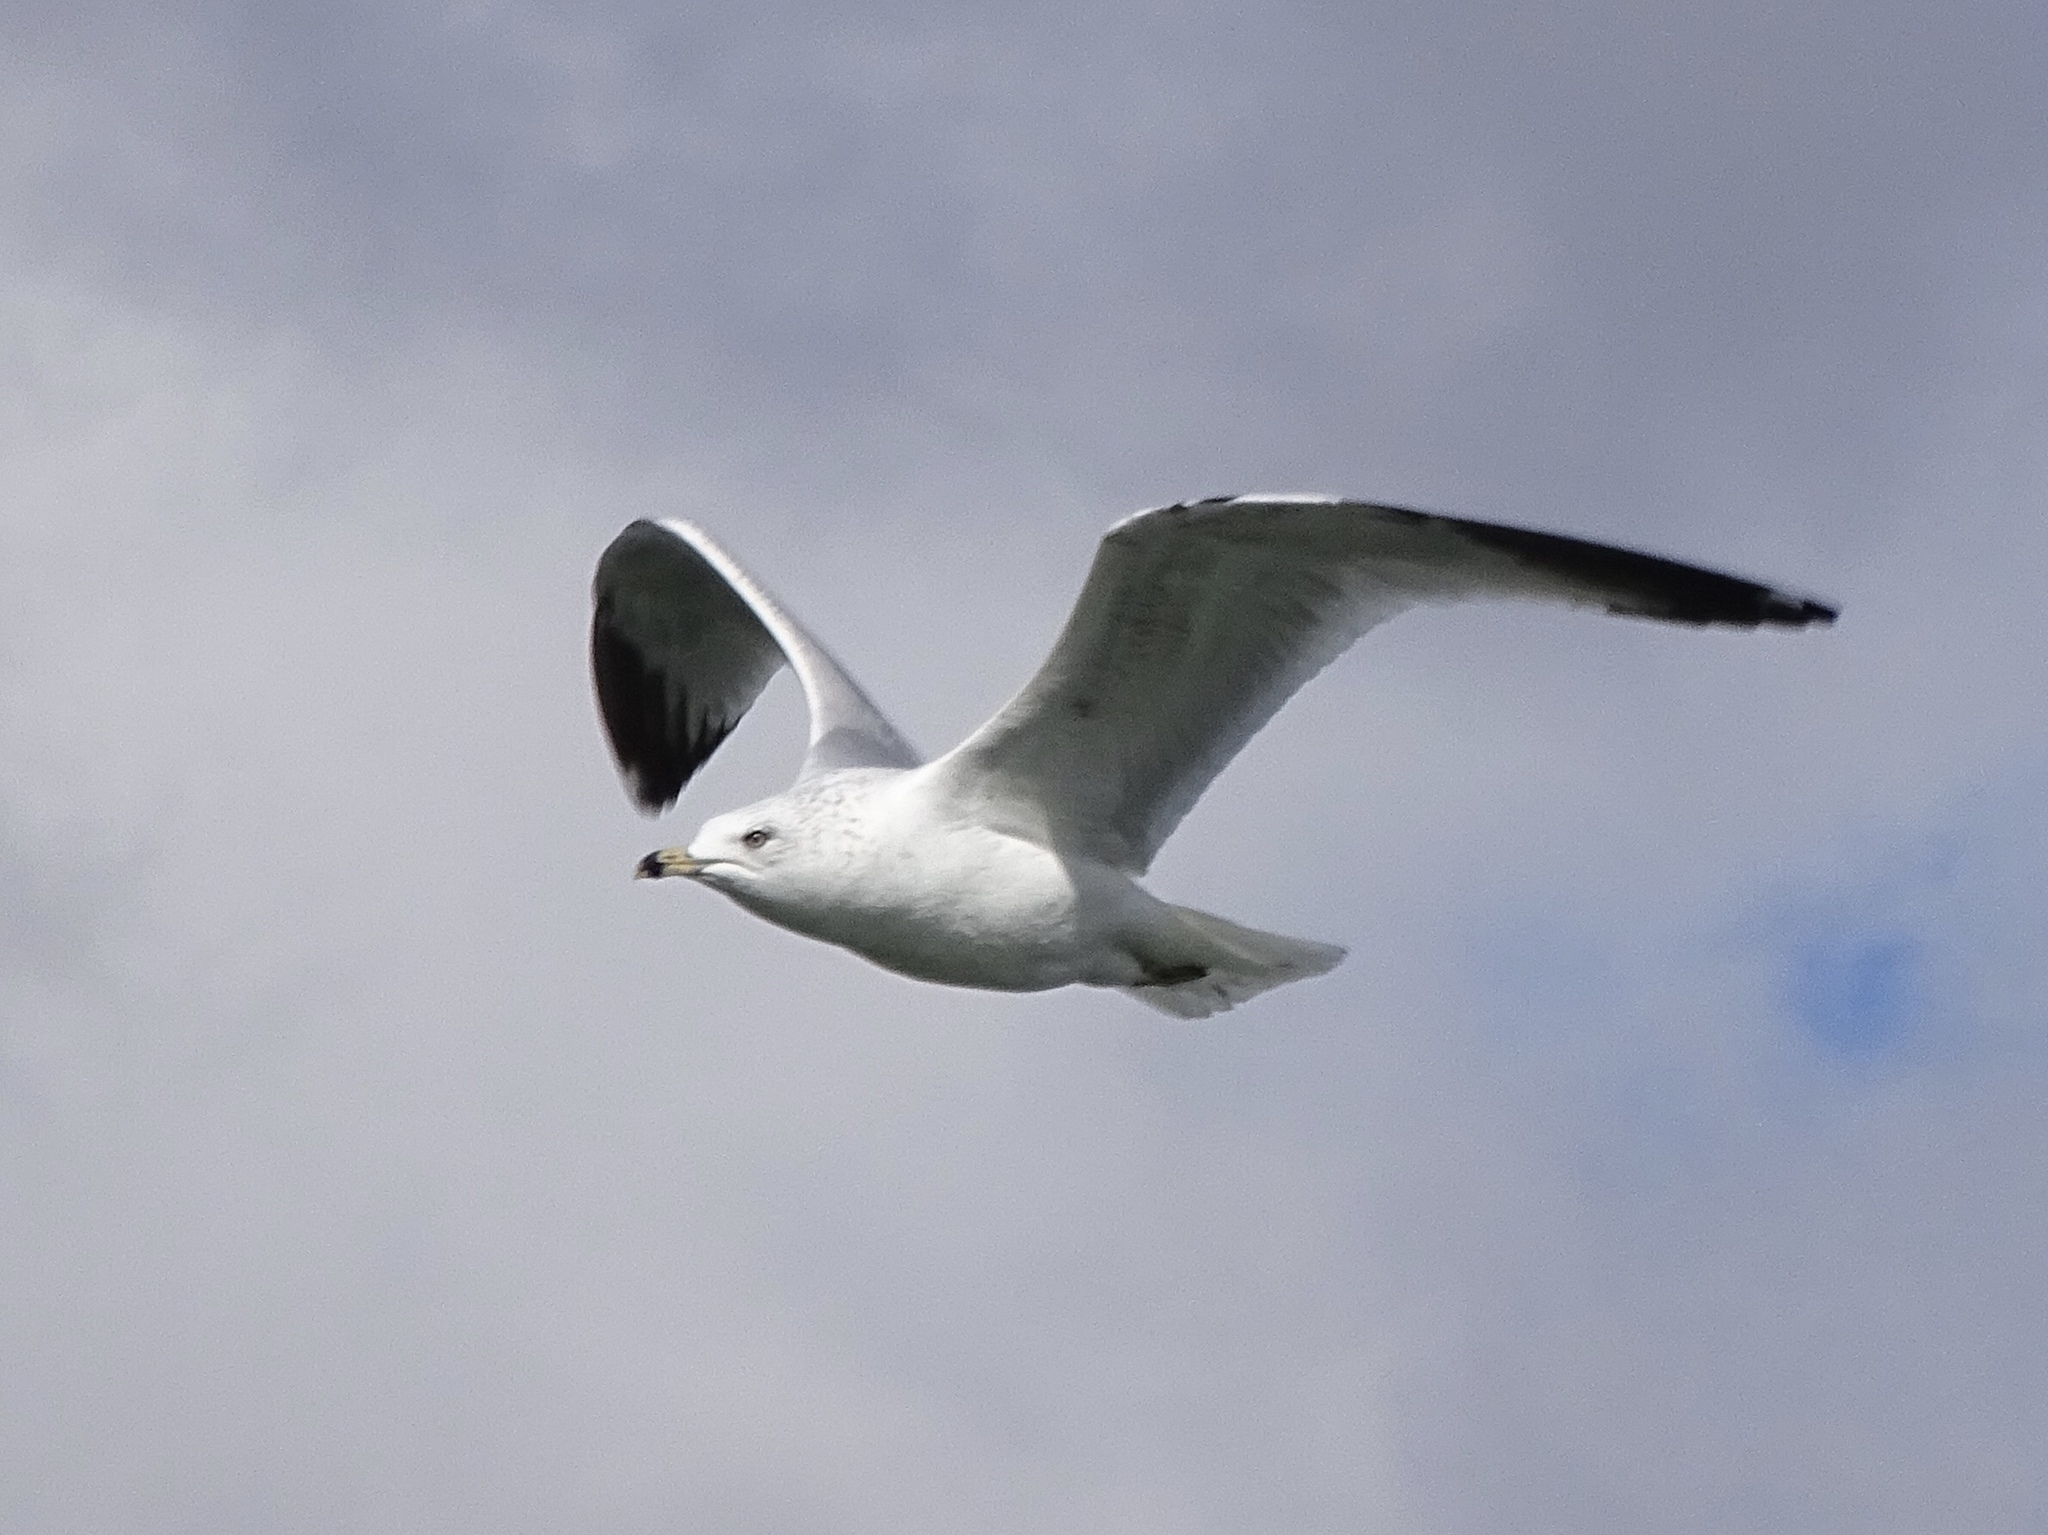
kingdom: Animalia
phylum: Chordata
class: Aves
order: Charadriiformes
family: Laridae
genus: Larus
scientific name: Larus delawarensis
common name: Ring-billed gull
